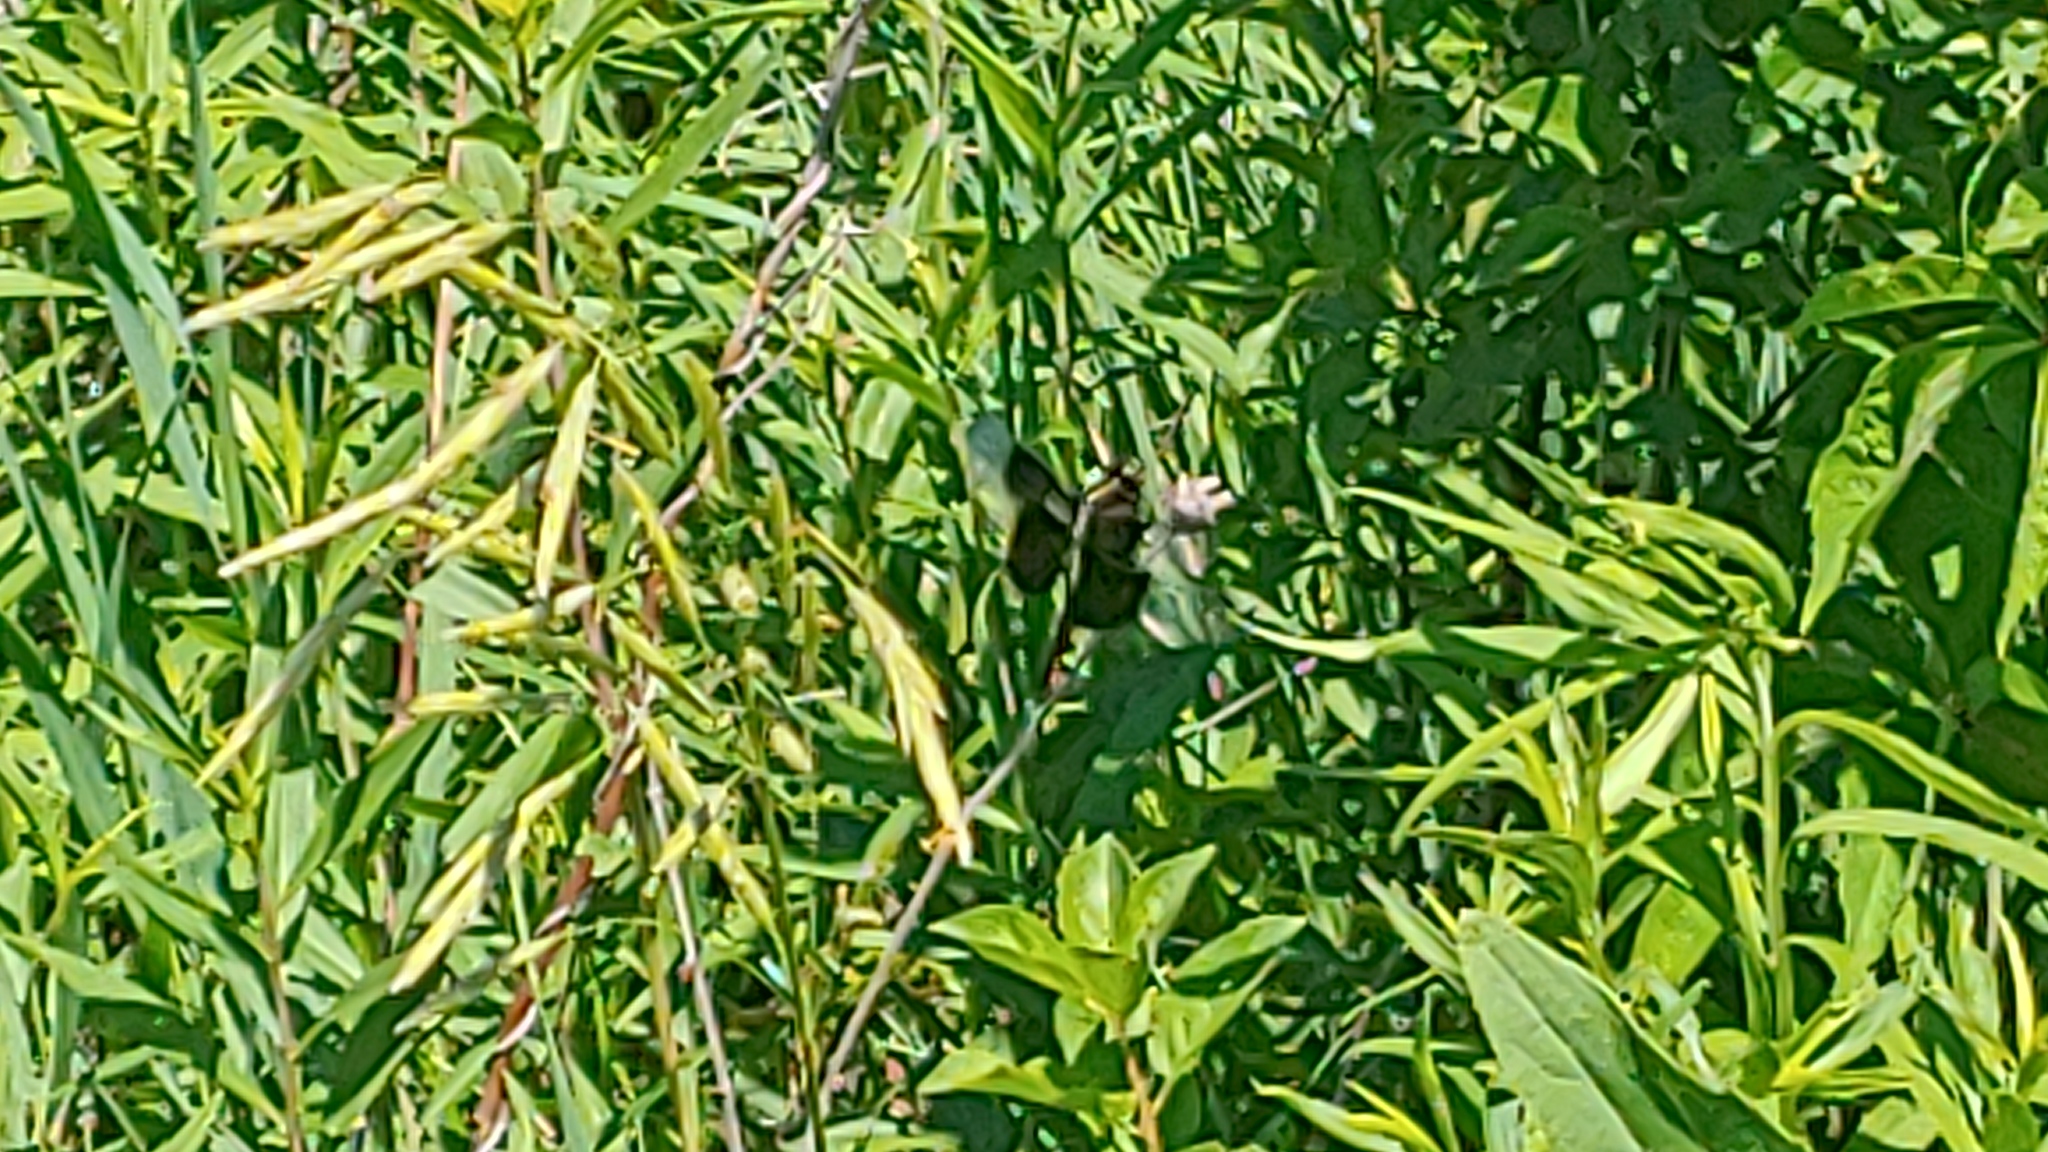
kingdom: Animalia
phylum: Arthropoda
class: Insecta
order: Odonata
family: Libellulidae
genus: Libellula
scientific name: Libellula luctuosa
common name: Widow skimmer
